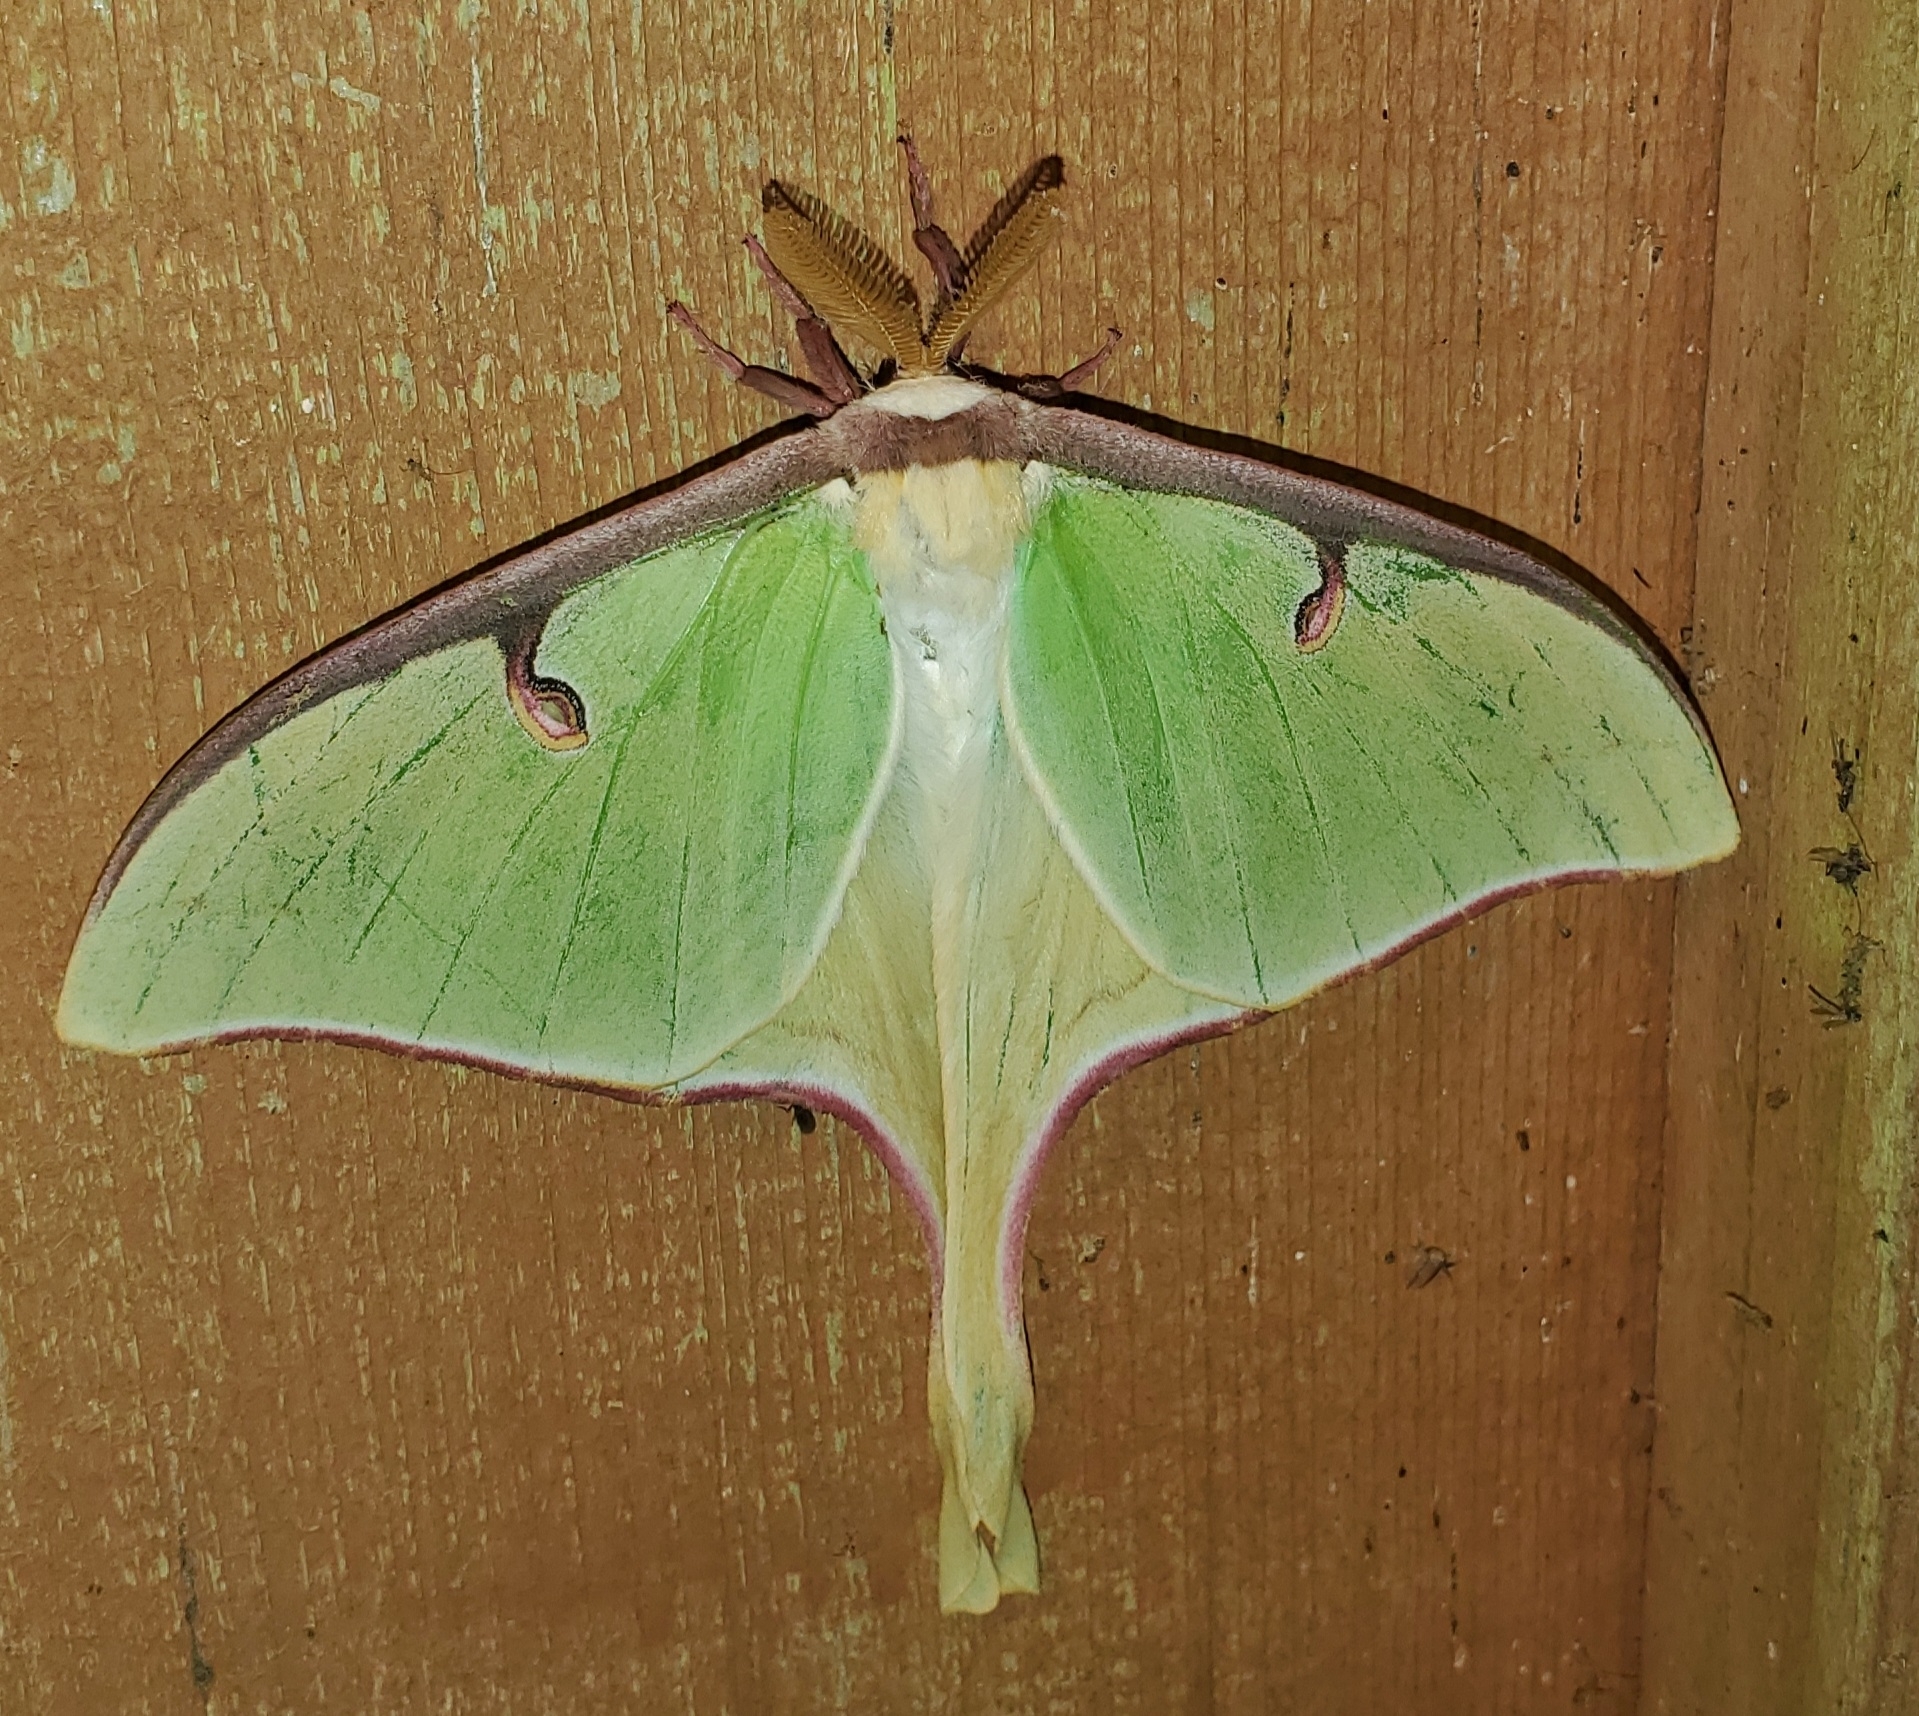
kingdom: Animalia
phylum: Arthropoda
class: Insecta
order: Lepidoptera
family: Saturniidae
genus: Actias
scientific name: Actias luna
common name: Luna moth
